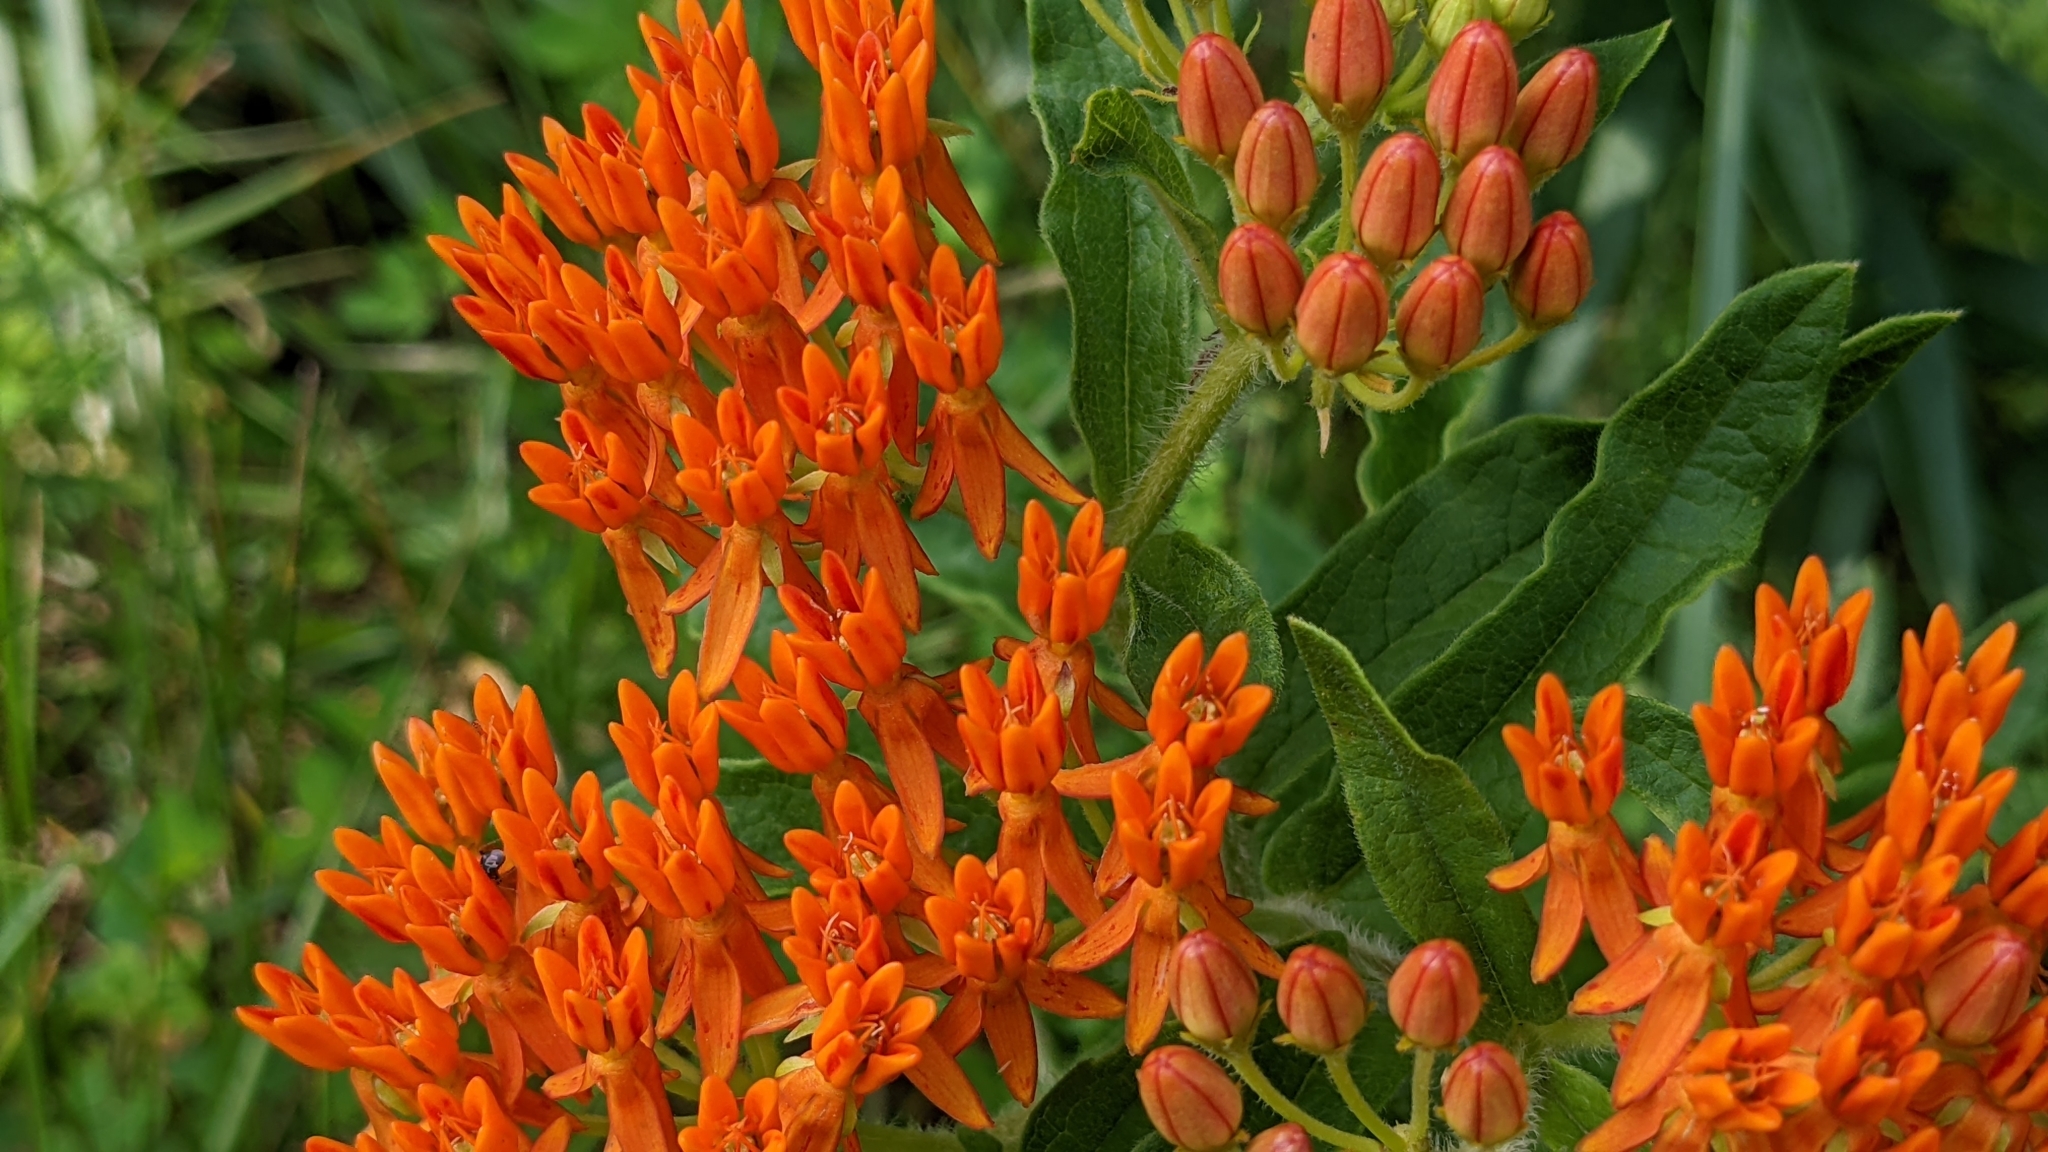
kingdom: Plantae
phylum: Tracheophyta
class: Magnoliopsida
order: Gentianales
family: Apocynaceae
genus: Asclepias
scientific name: Asclepias tuberosa
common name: Butterfly milkweed
